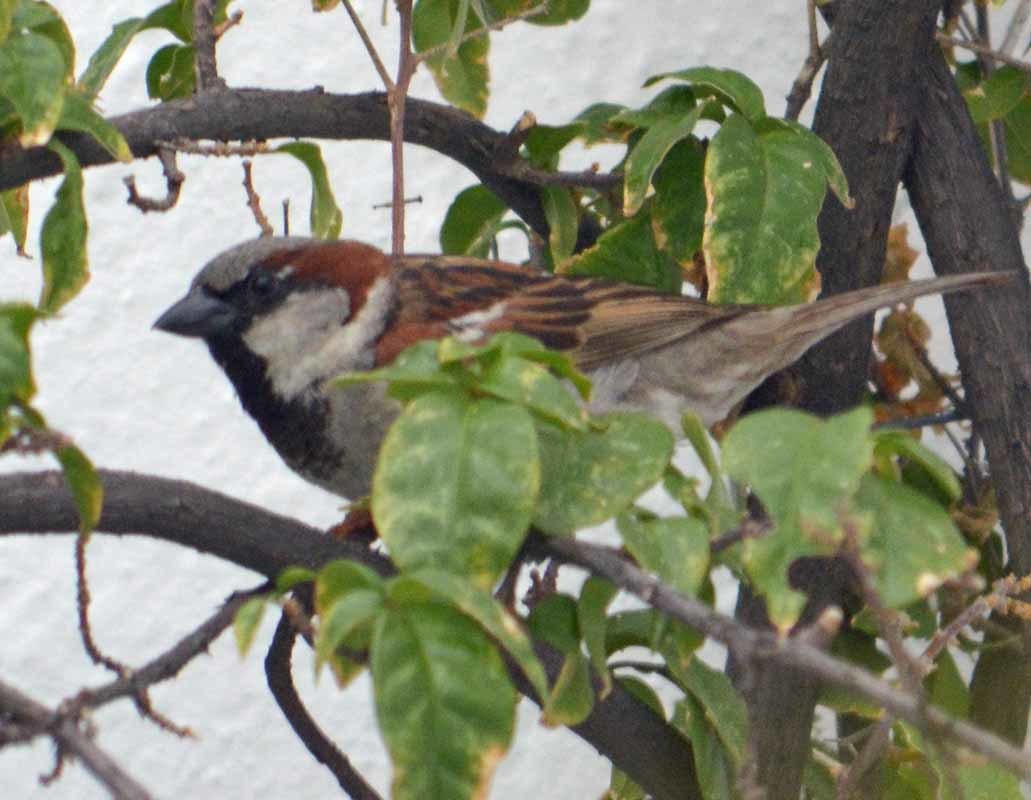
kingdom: Animalia
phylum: Chordata
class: Aves
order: Passeriformes
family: Passeridae
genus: Passer
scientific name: Passer domesticus
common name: House sparrow
